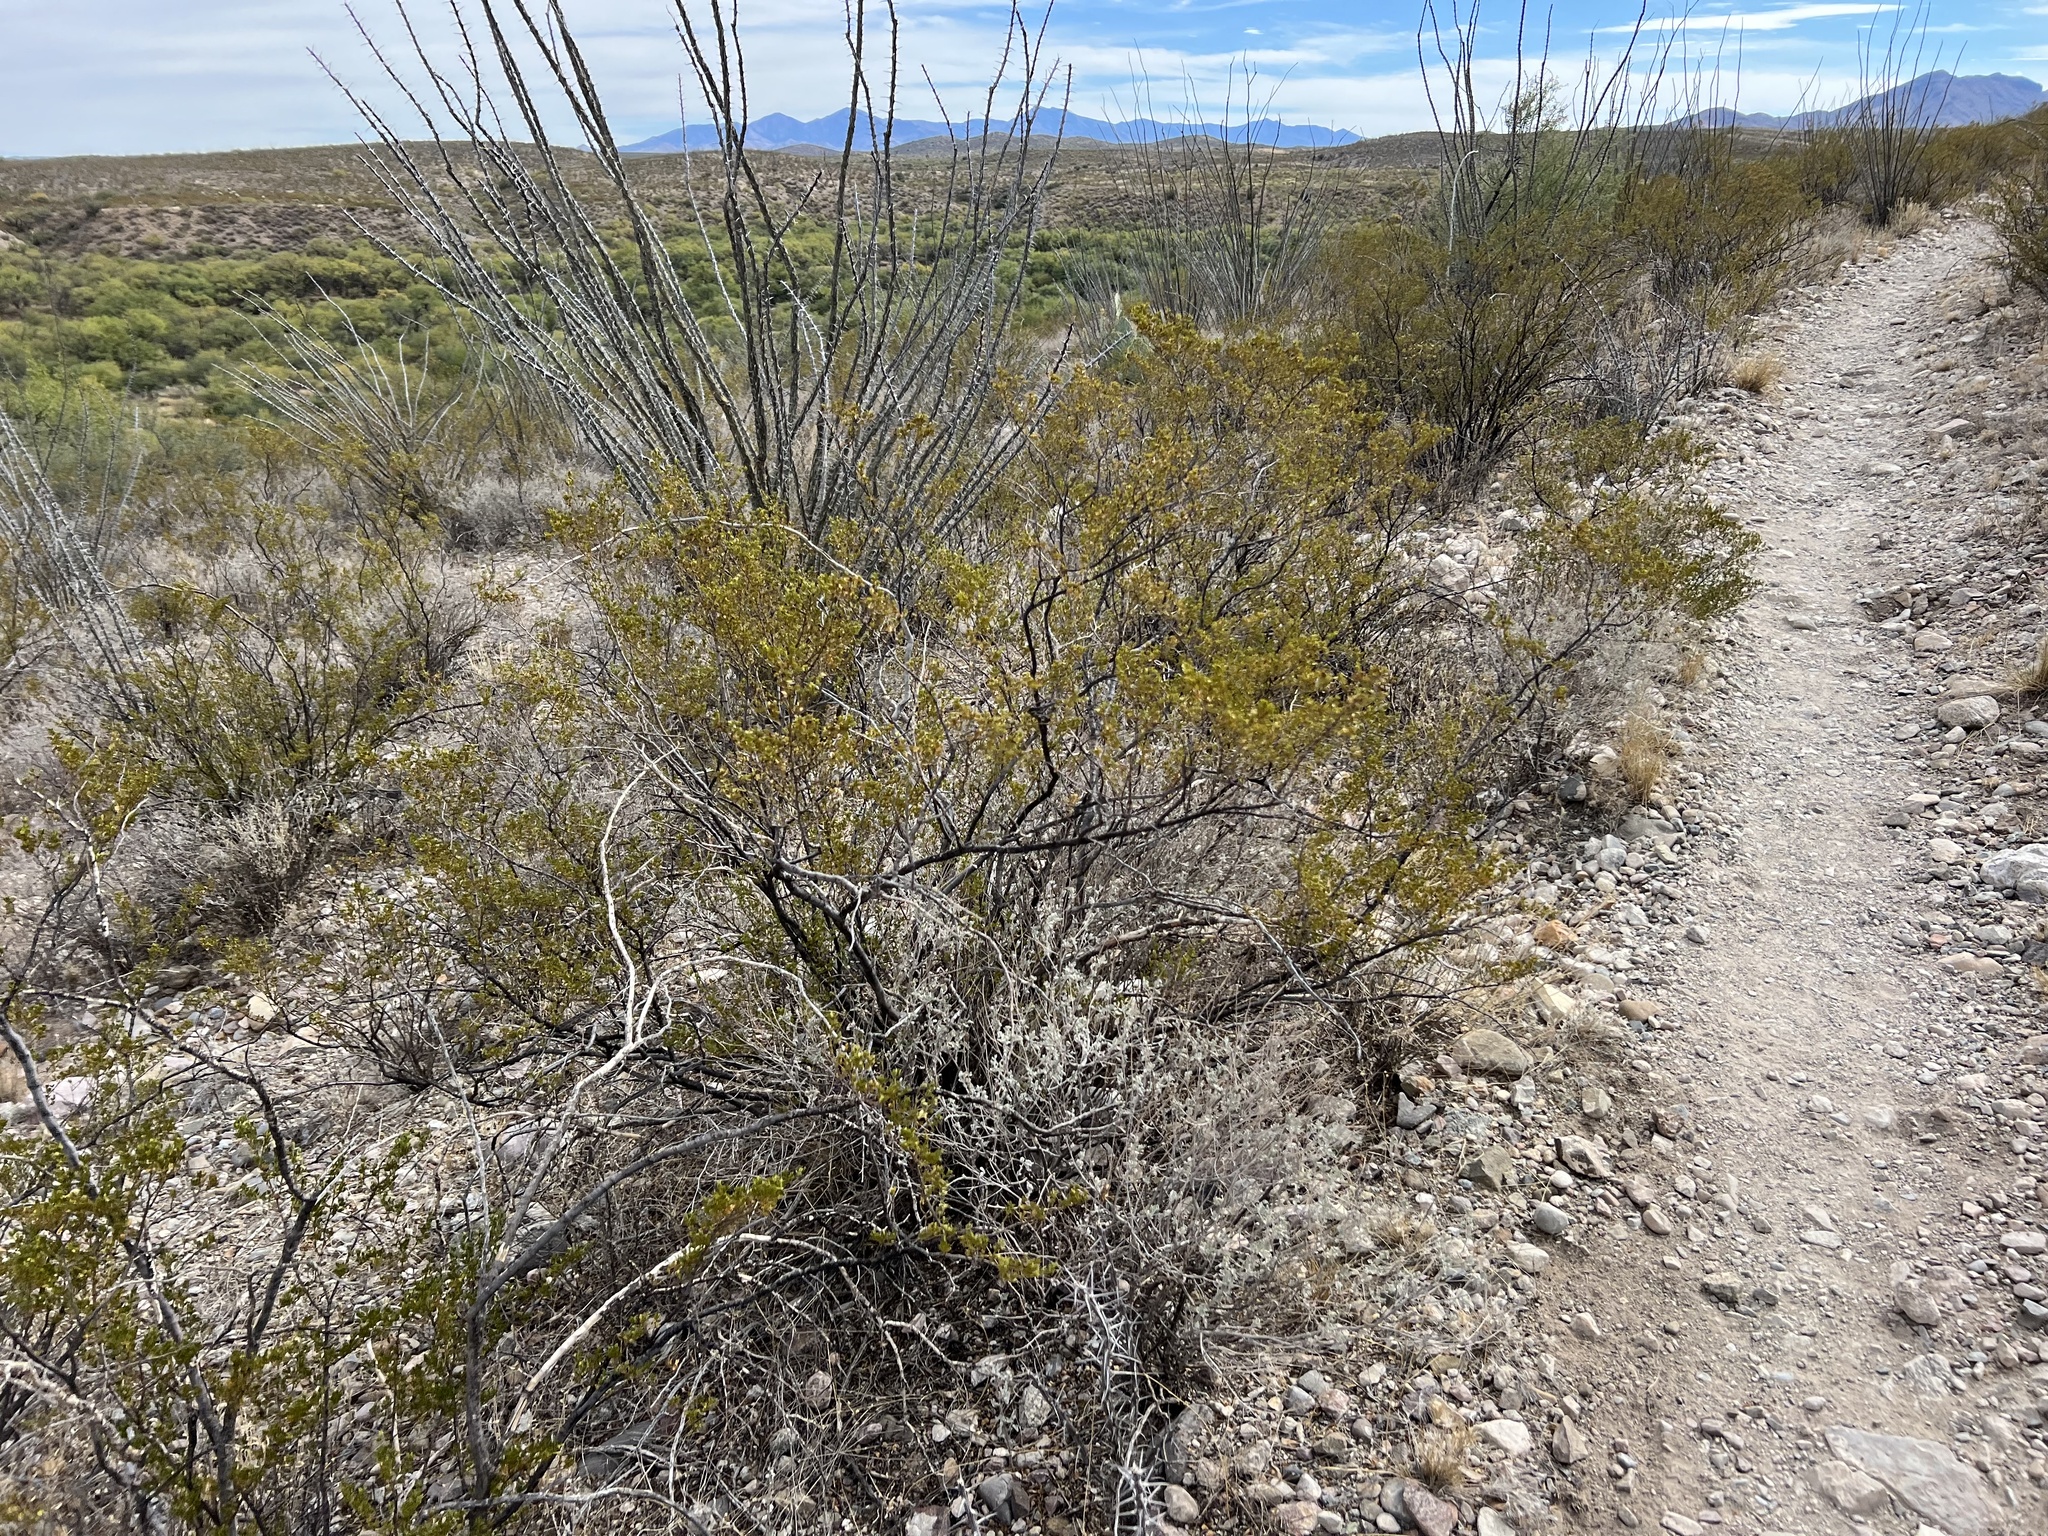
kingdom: Plantae
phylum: Tracheophyta
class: Magnoliopsida
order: Zygophyllales
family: Zygophyllaceae
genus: Larrea
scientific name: Larrea tridentata
